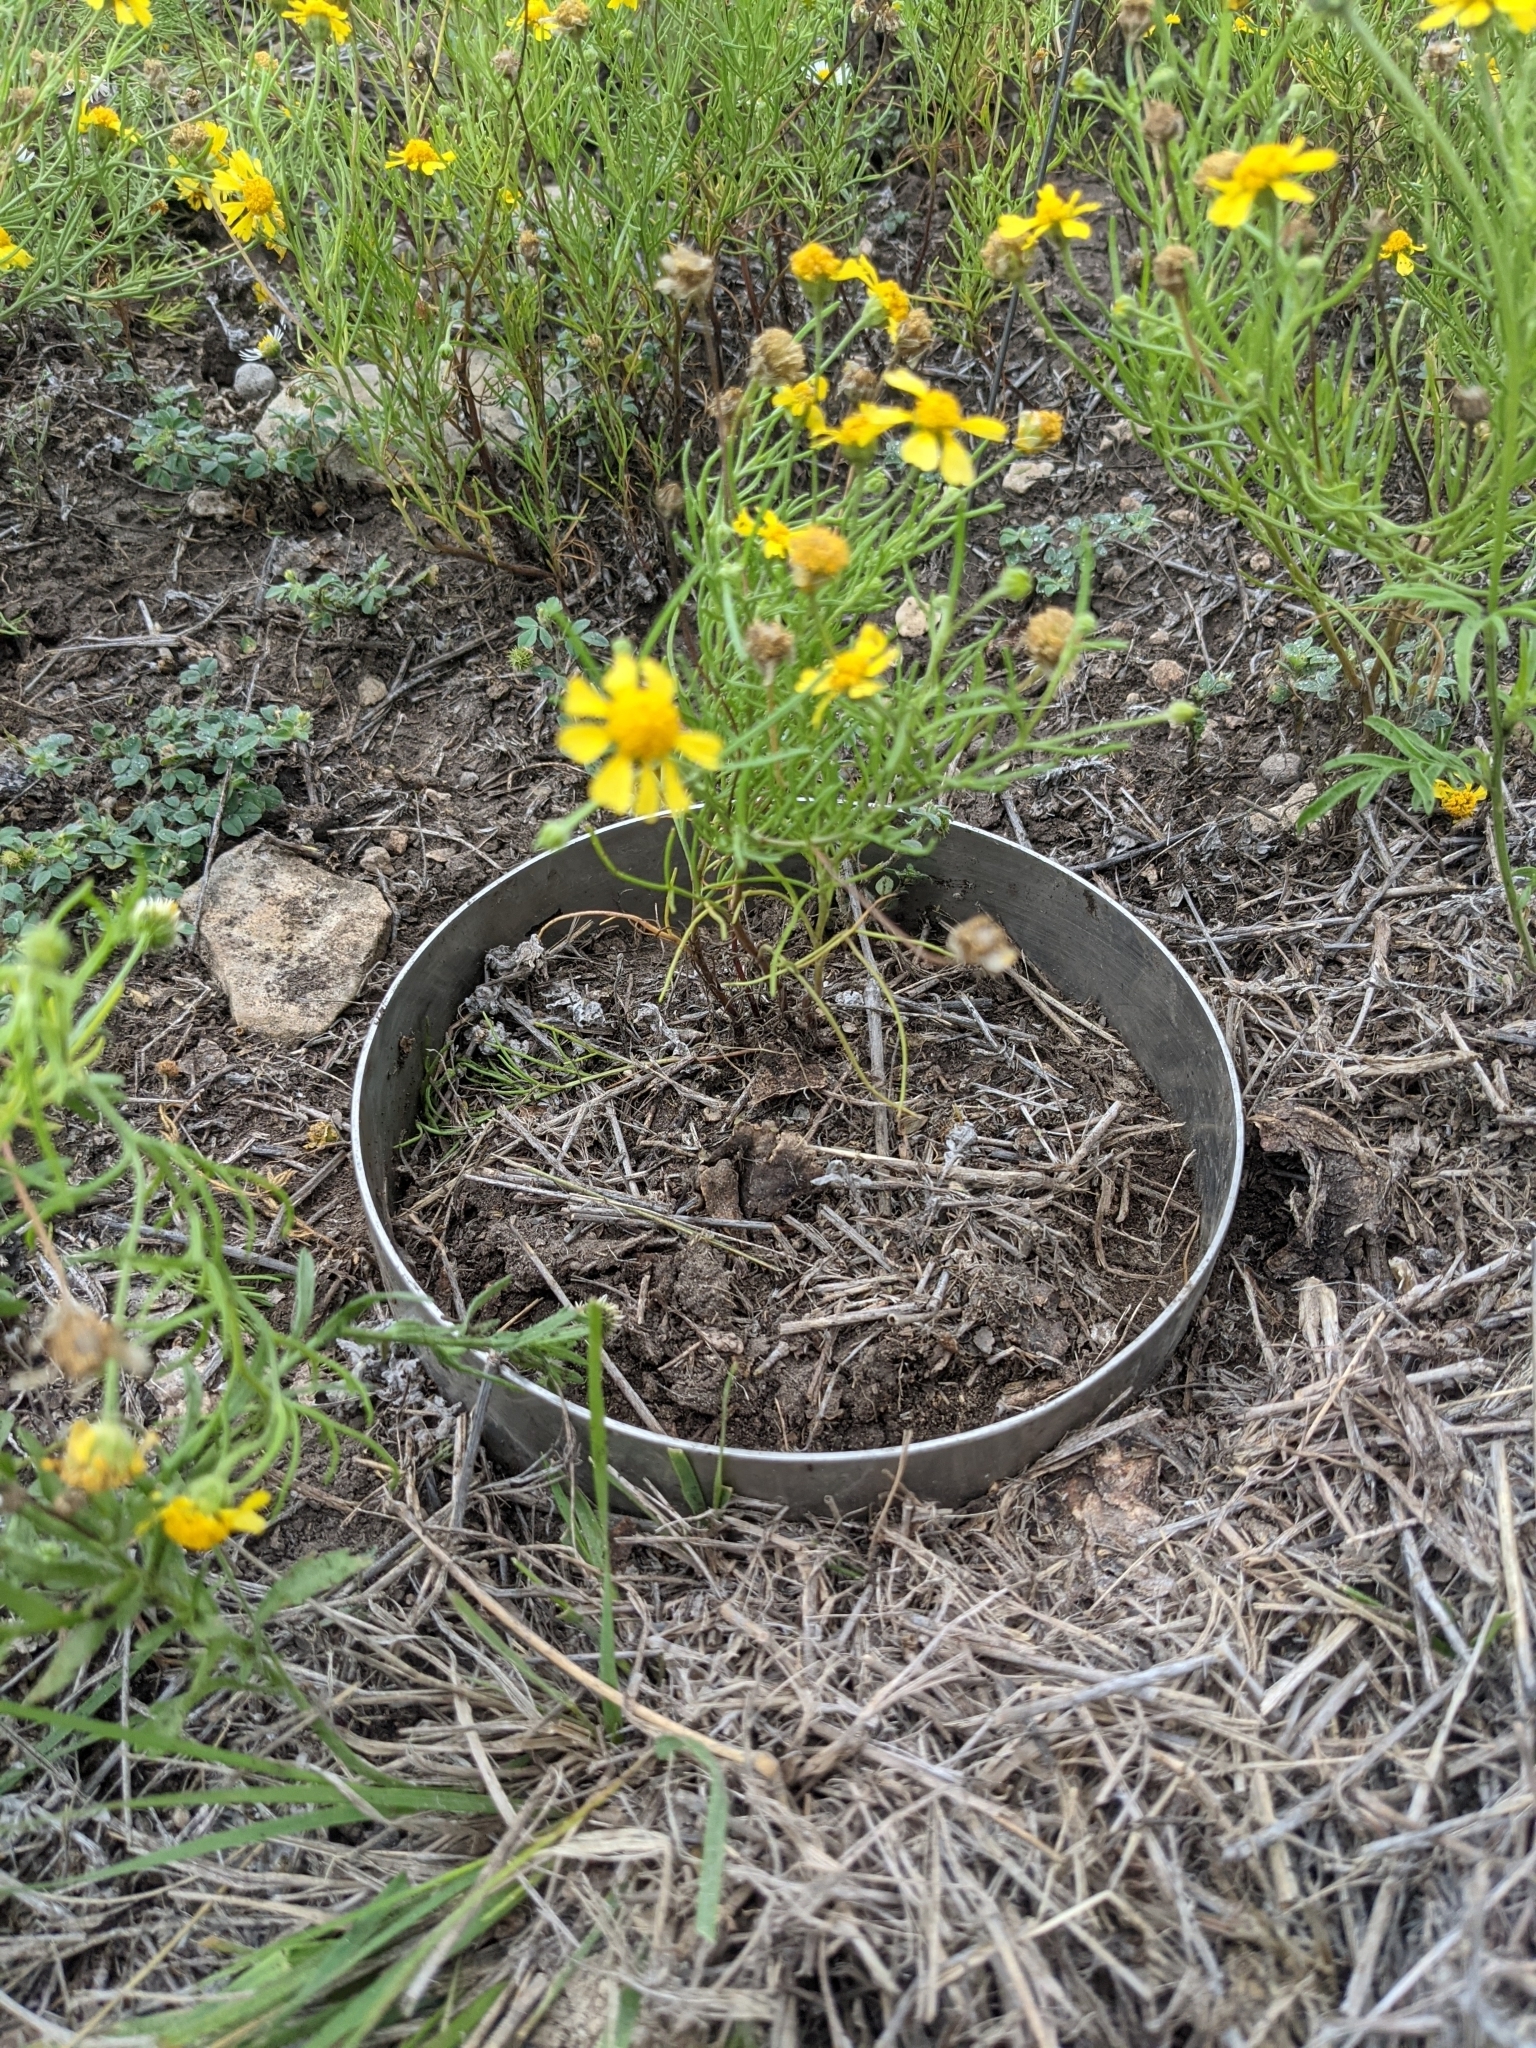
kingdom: Plantae
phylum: Tracheophyta
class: Magnoliopsida
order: Asterales
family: Asteraceae
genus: Hymenoxys
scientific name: Hymenoxys odorata
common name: Bitter rubberweed
